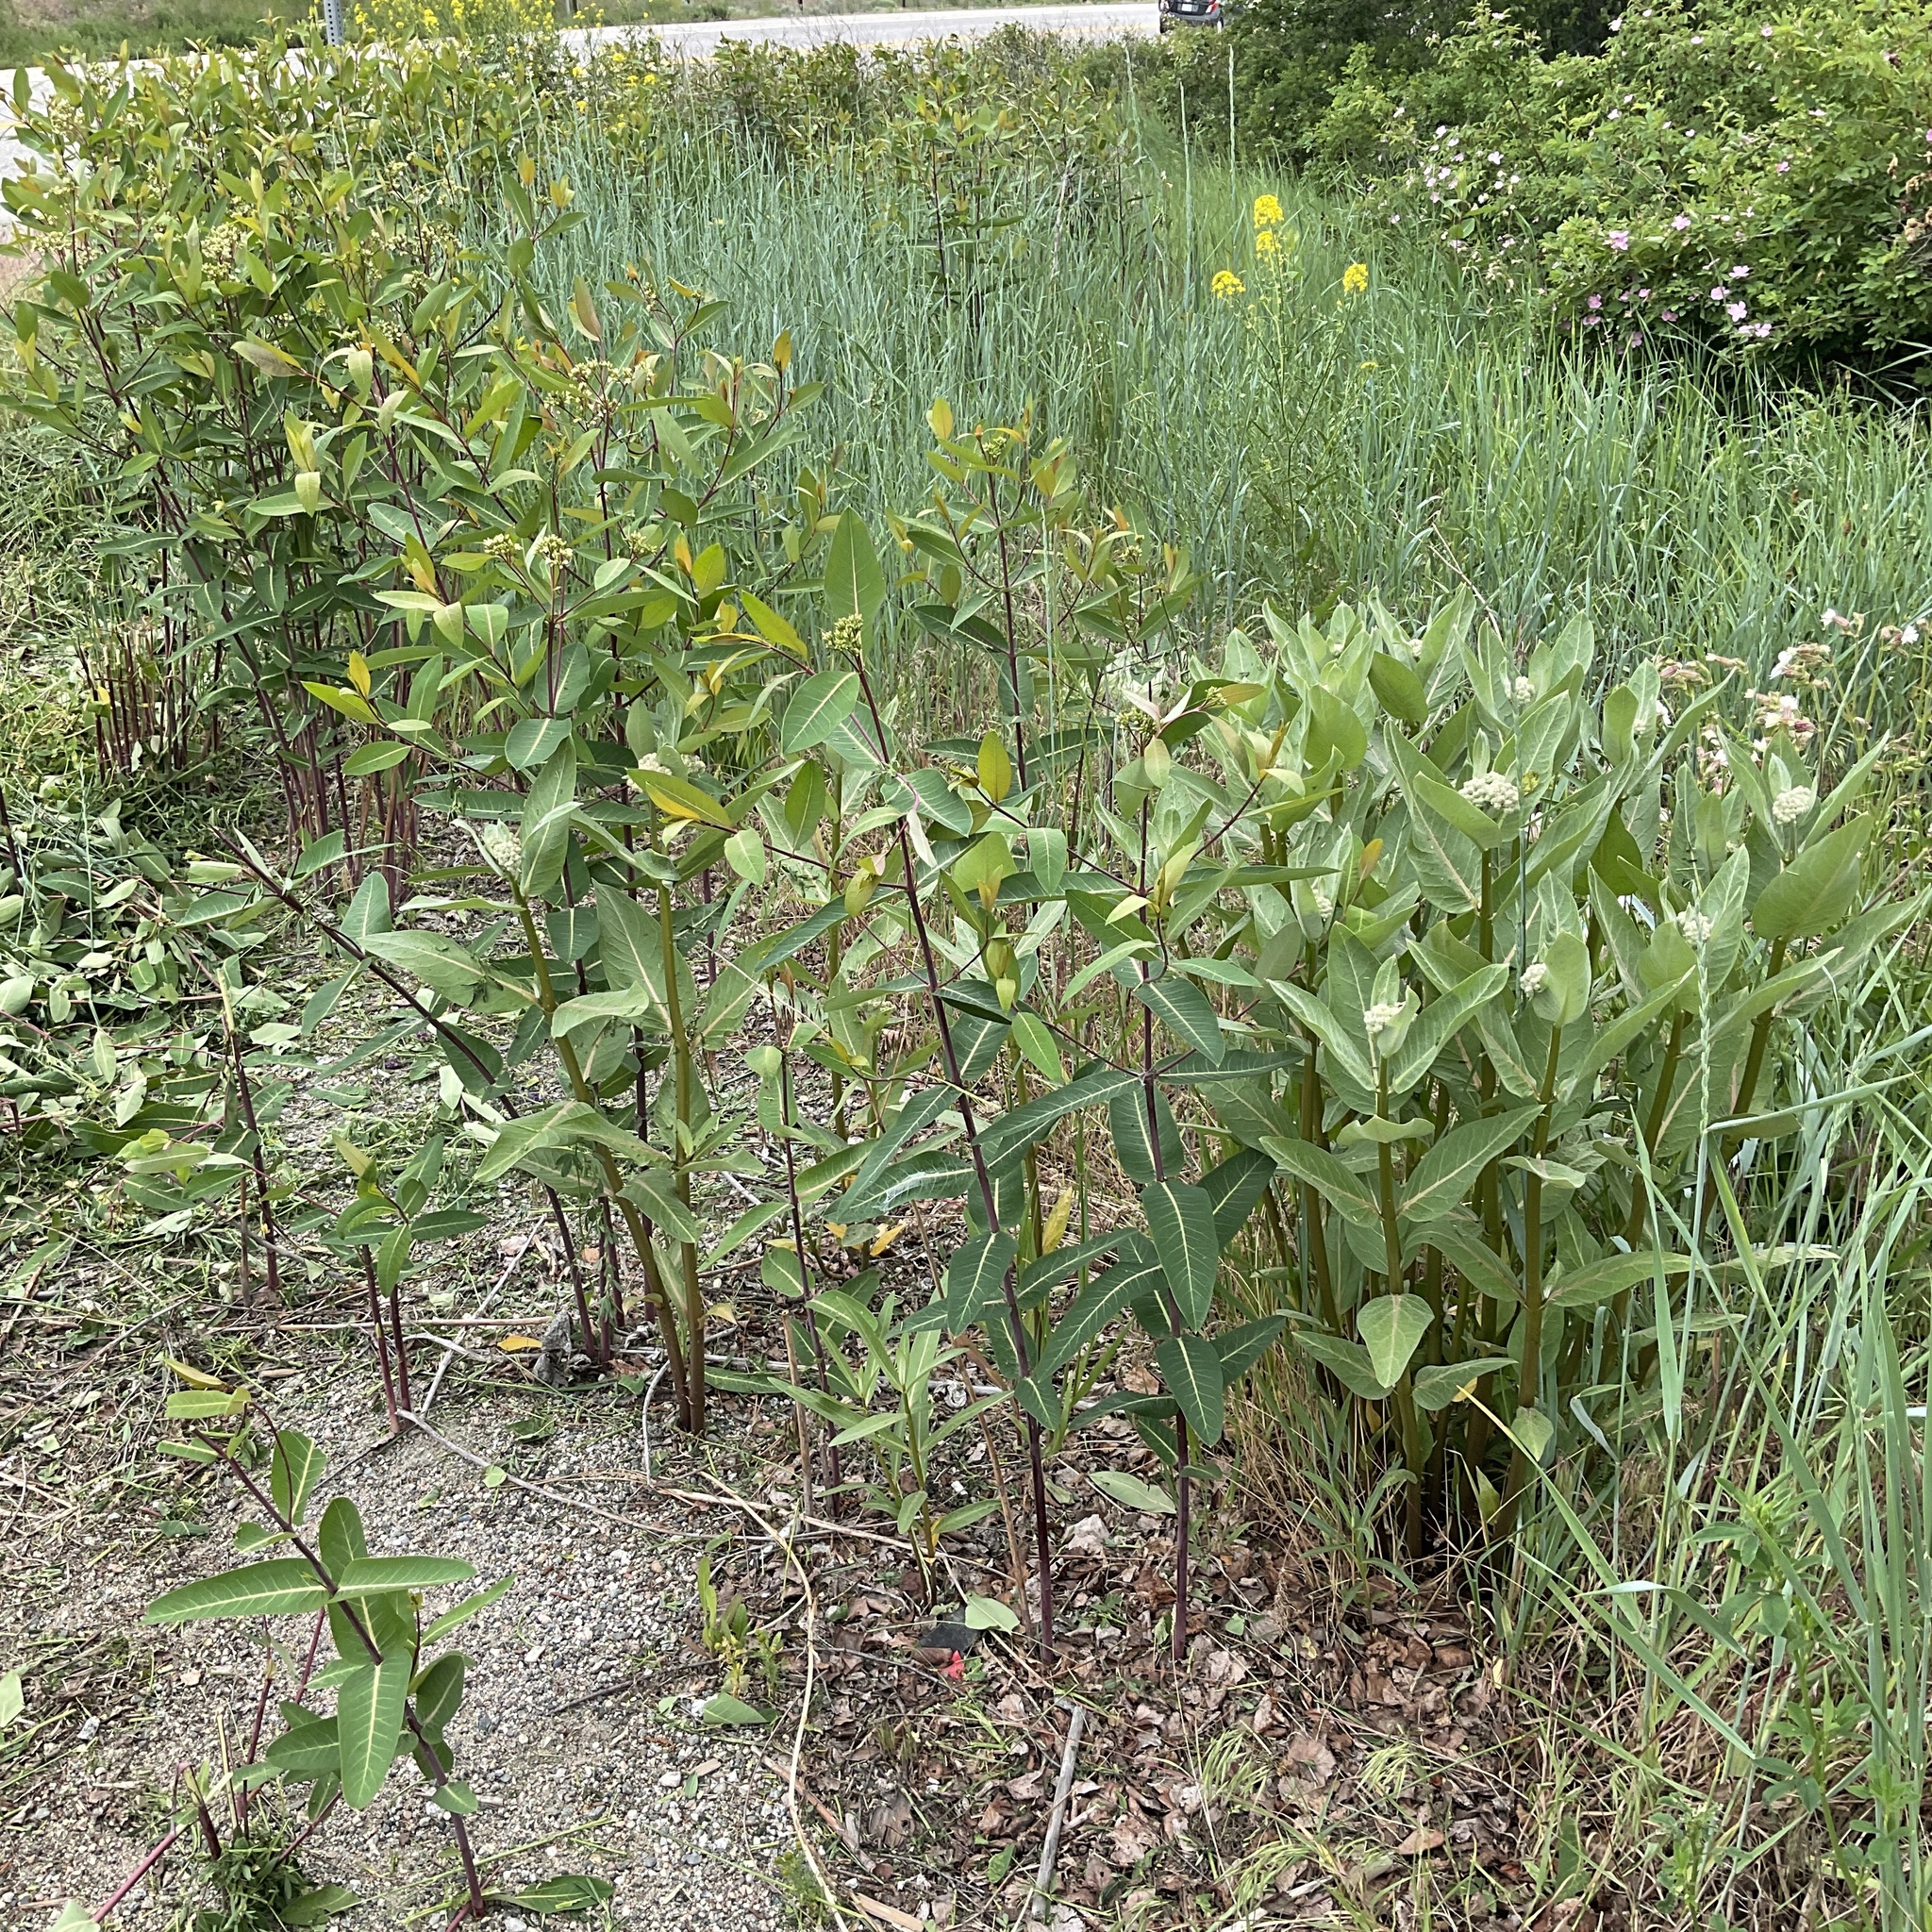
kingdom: Plantae
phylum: Tracheophyta
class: Magnoliopsida
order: Gentianales
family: Apocynaceae
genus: Asclepias
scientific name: Asclepias speciosa
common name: Showy milkweed
